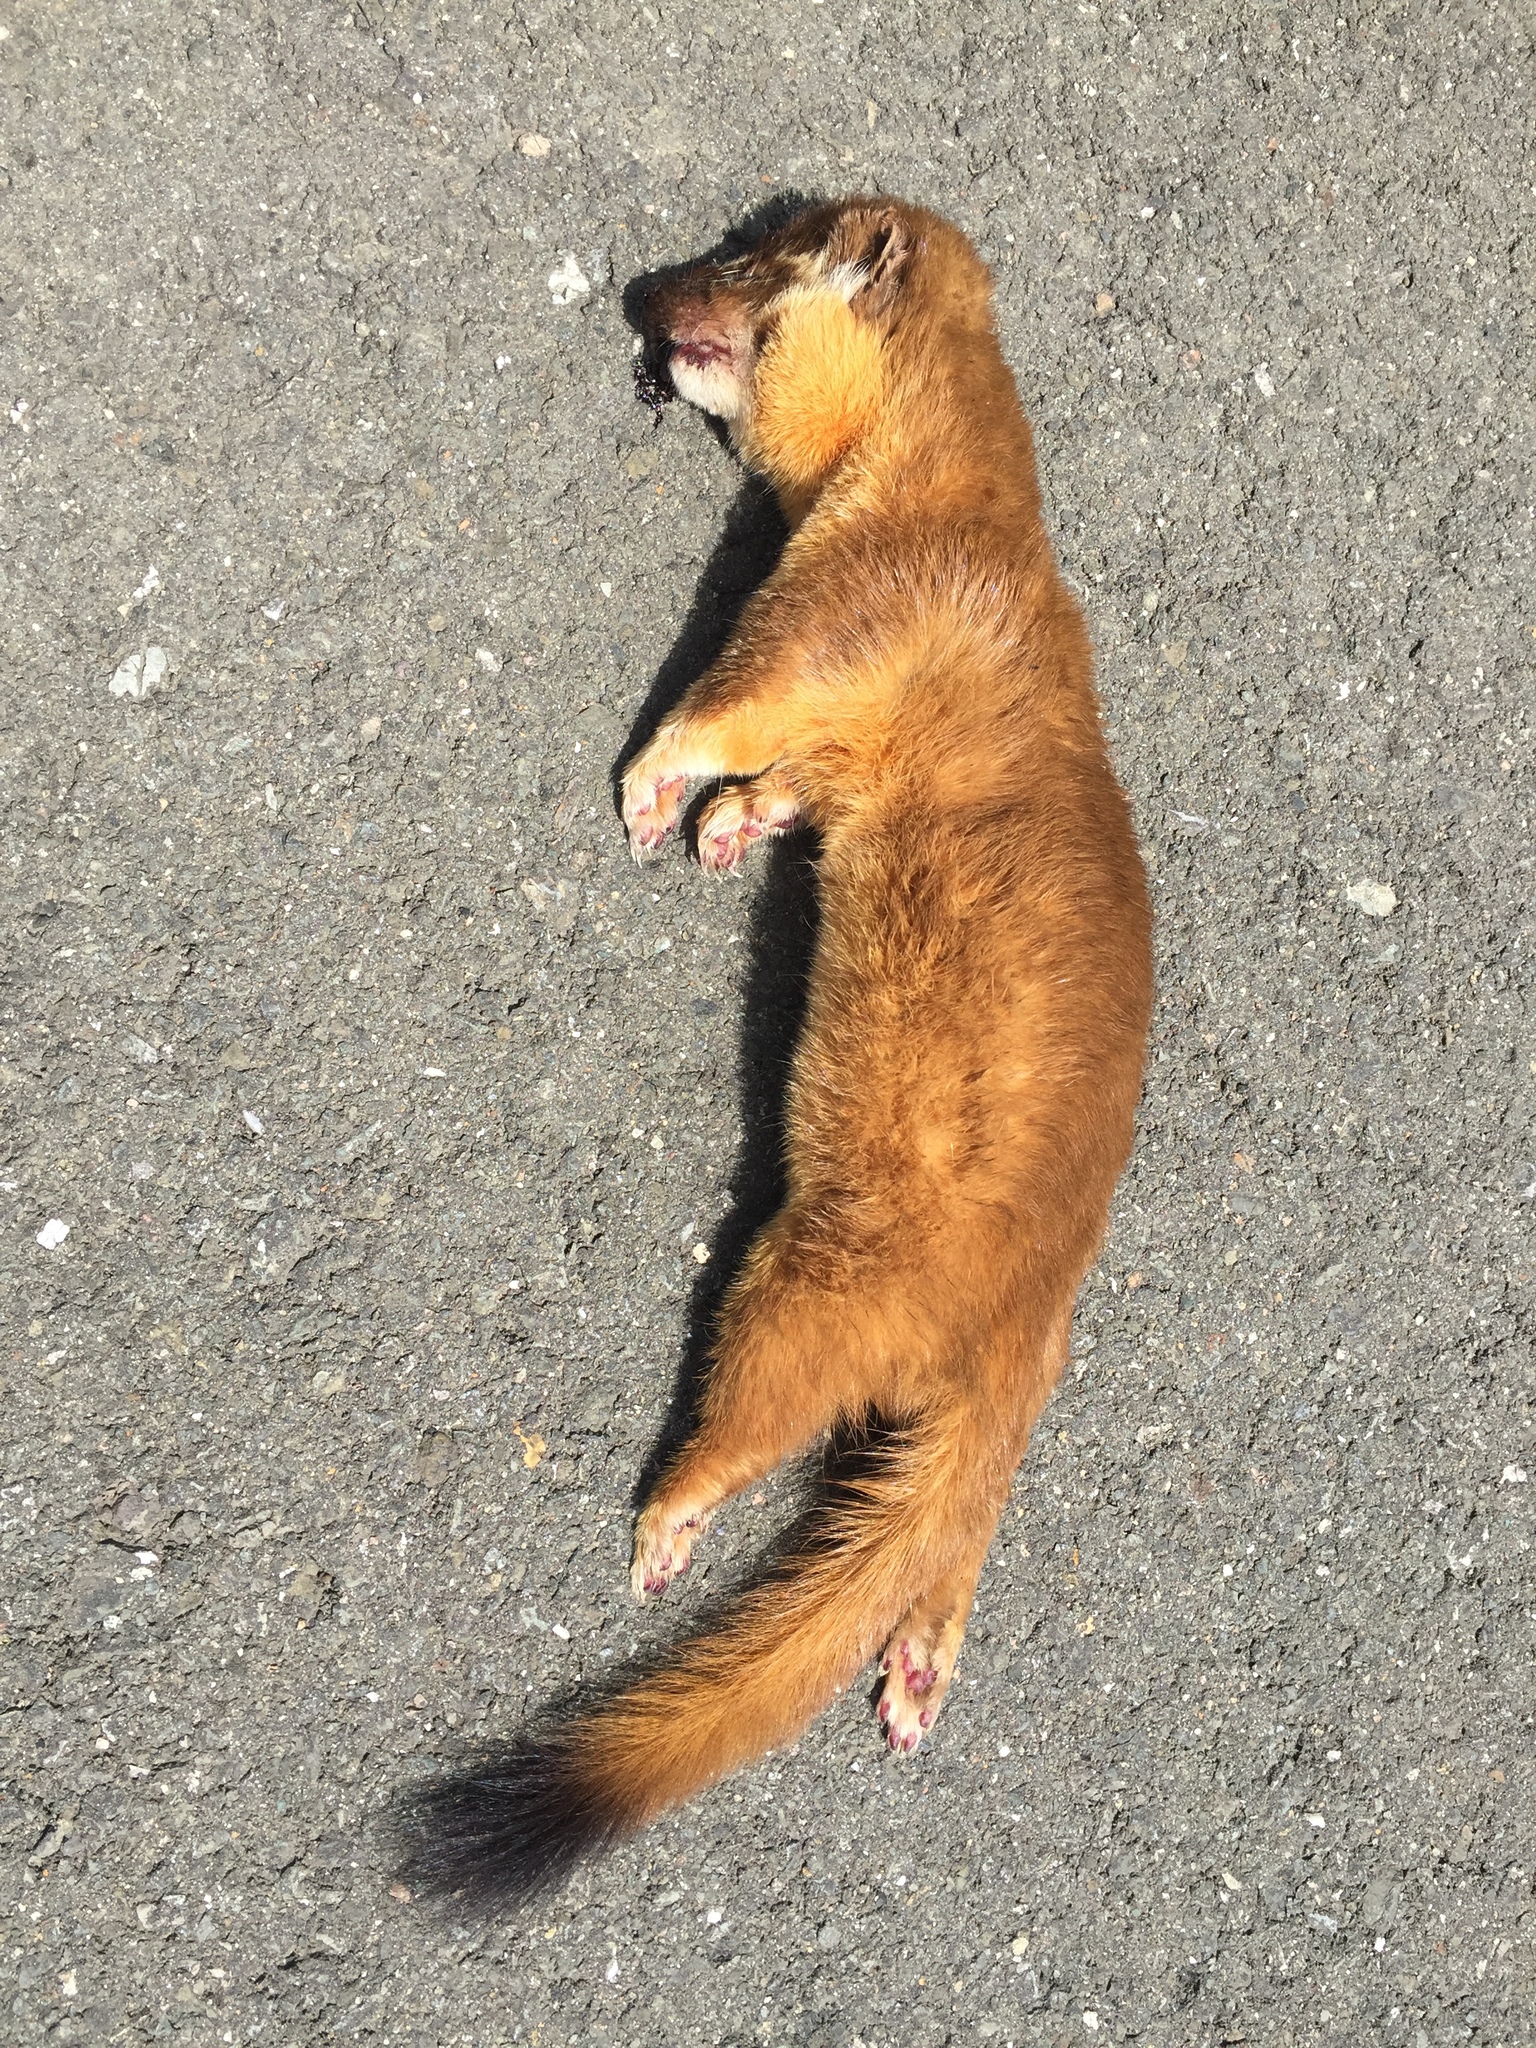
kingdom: Animalia
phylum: Chordata
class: Mammalia
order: Carnivora
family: Mustelidae
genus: Mustela
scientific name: Mustela
